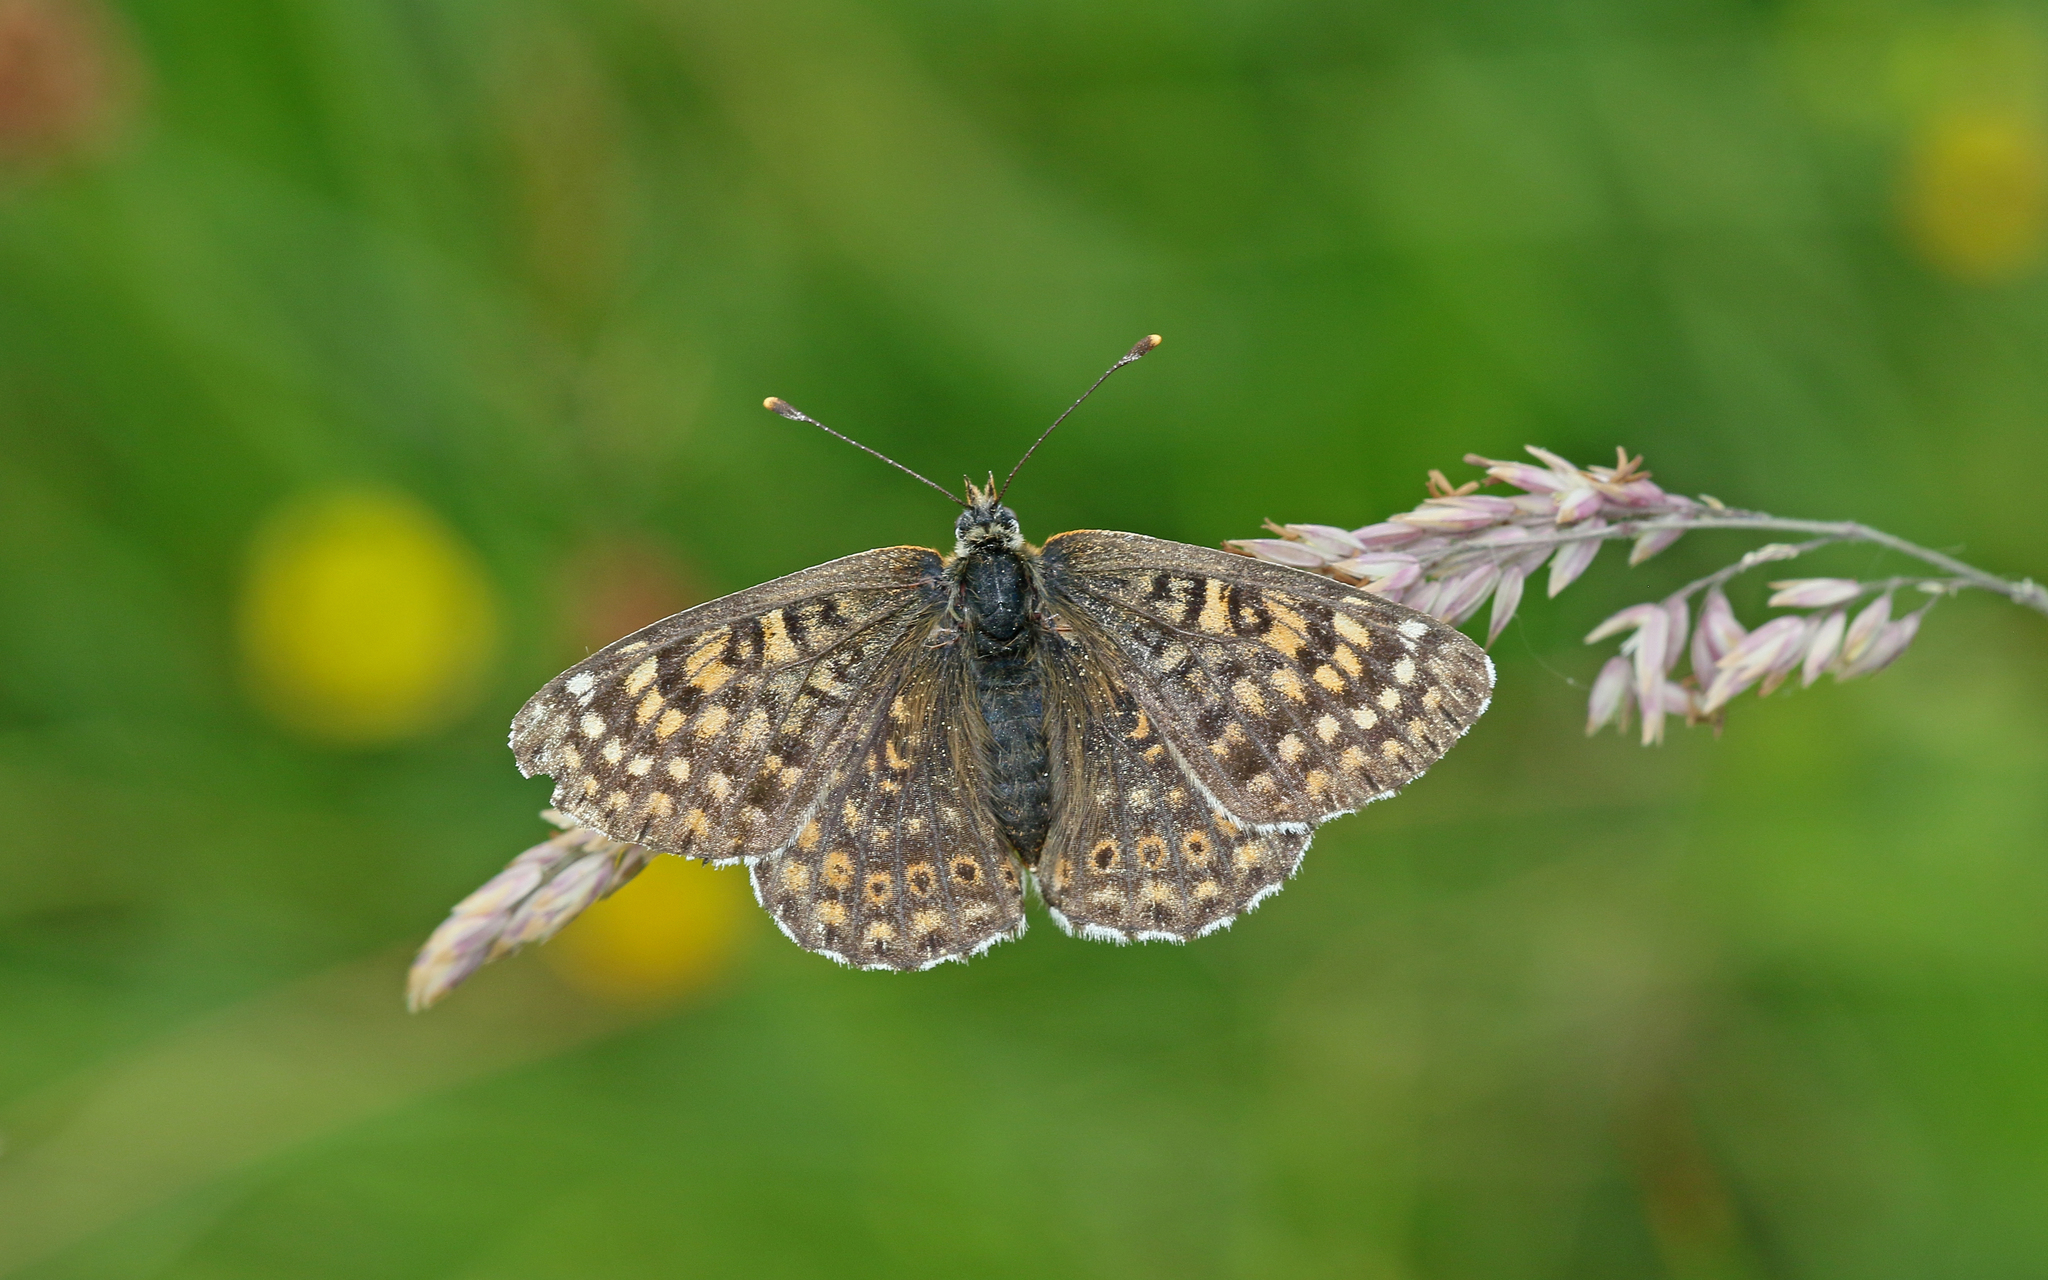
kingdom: Animalia
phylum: Arthropoda
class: Insecta
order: Lepidoptera
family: Nymphalidae
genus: Melitaea
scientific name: Melitaea cinxia
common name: Glanville fritillary
